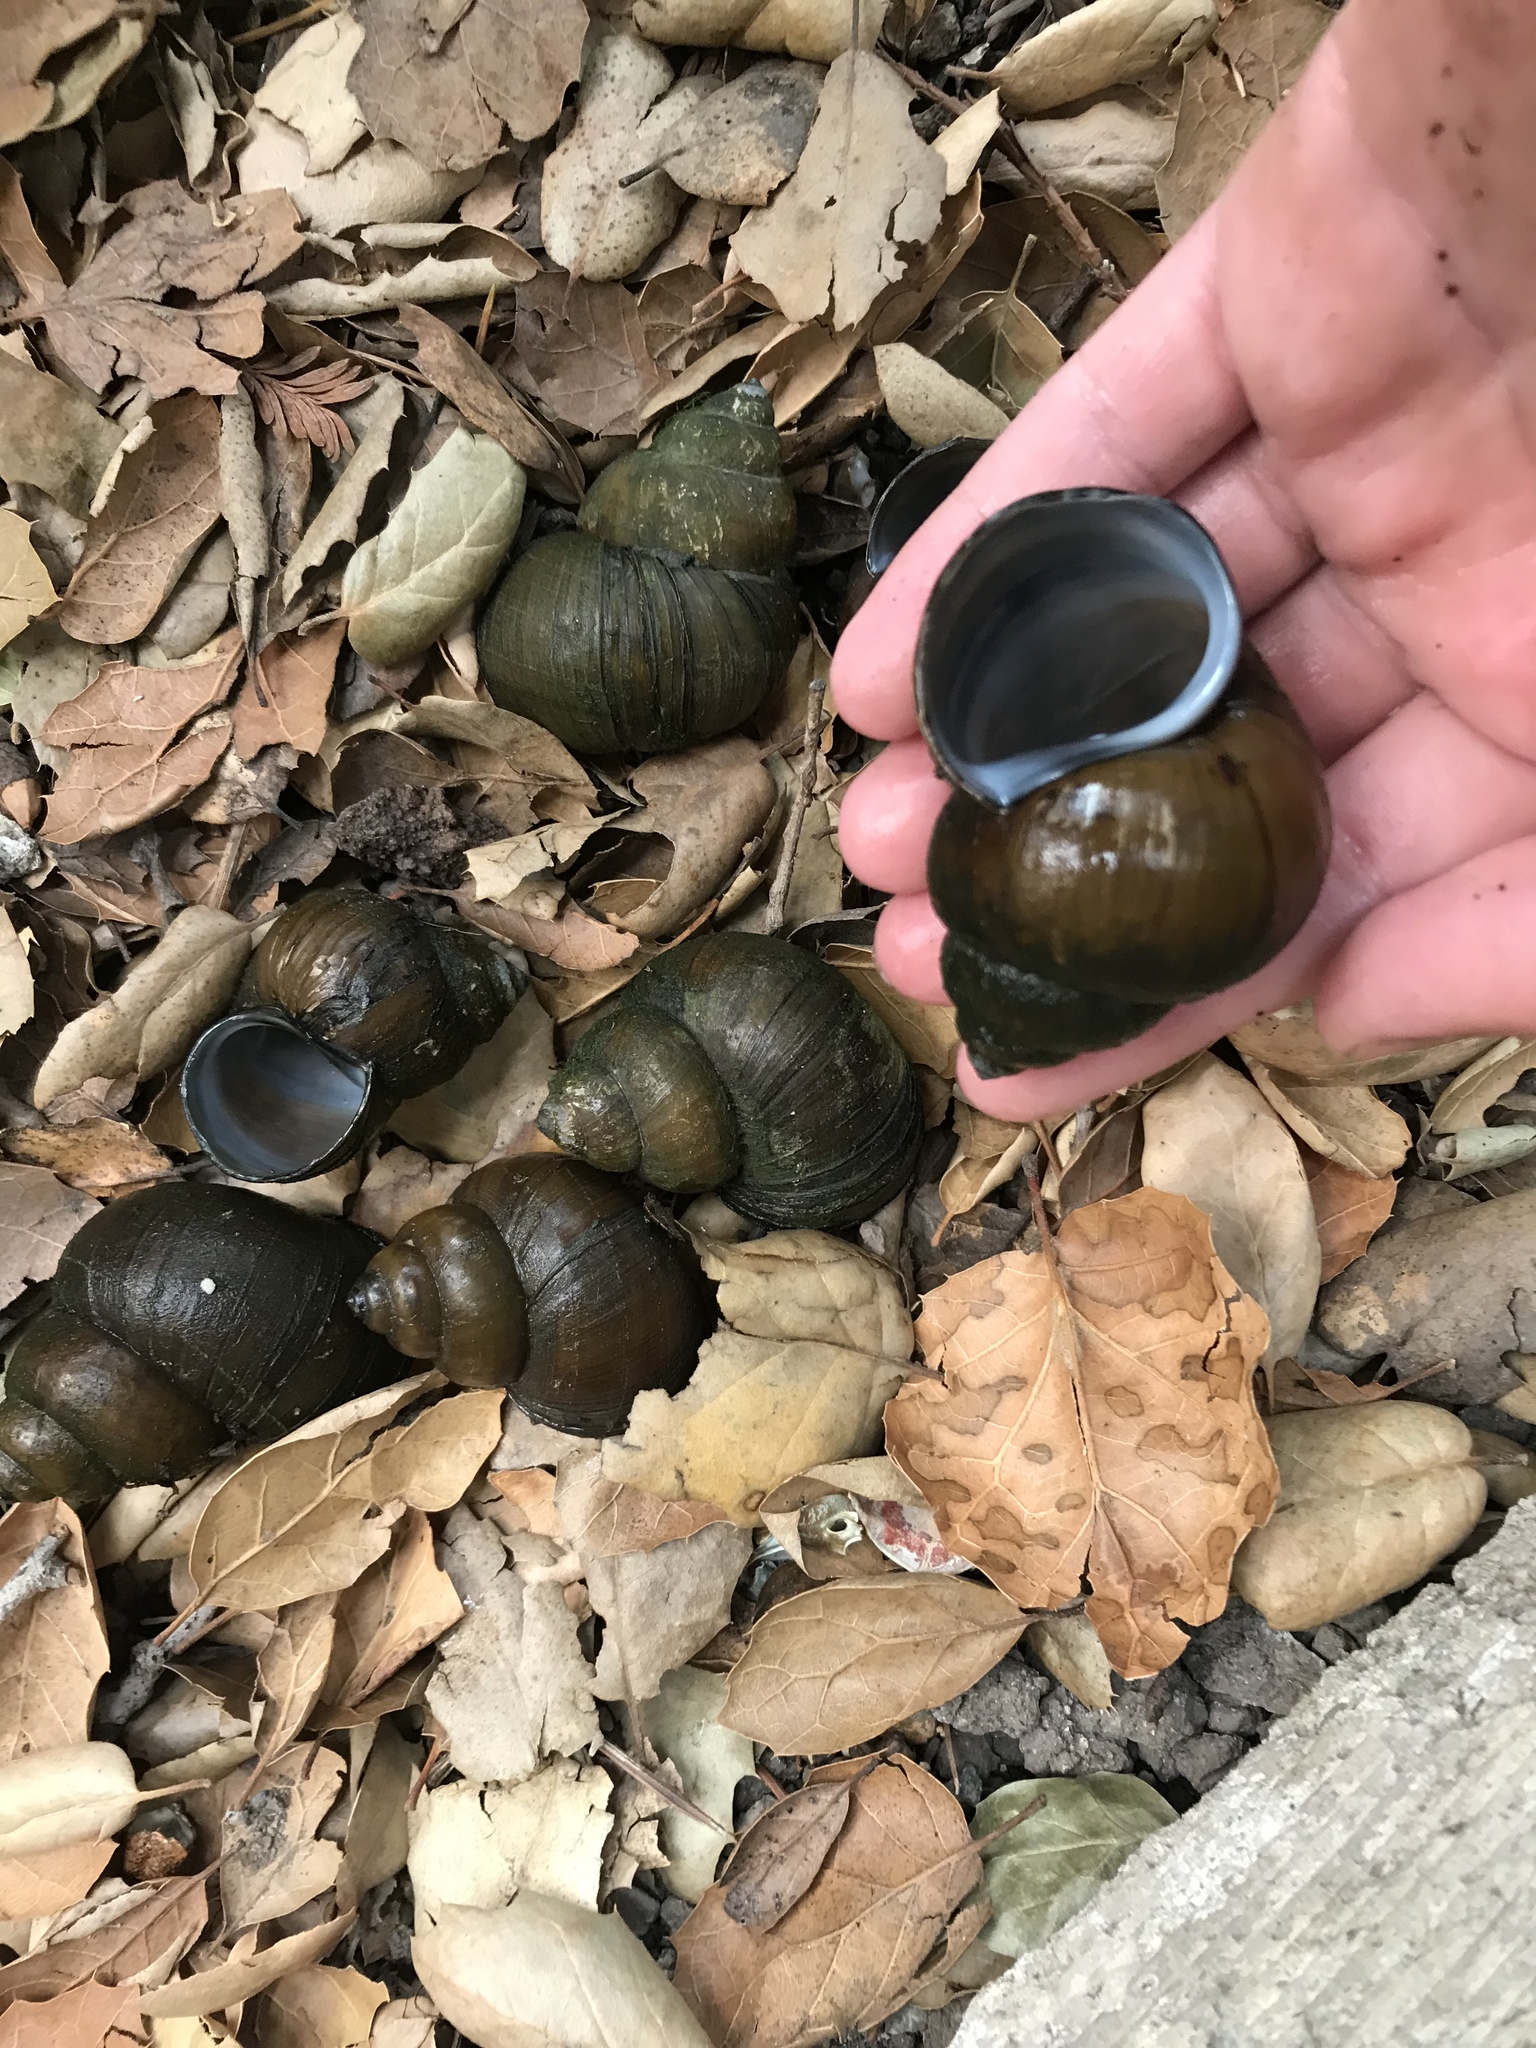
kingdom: Animalia
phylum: Mollusca
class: Gastropoda
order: Architaenioglossa
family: Viviparidae
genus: Cipangopaludina
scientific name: Cipangopaludina chinensis
